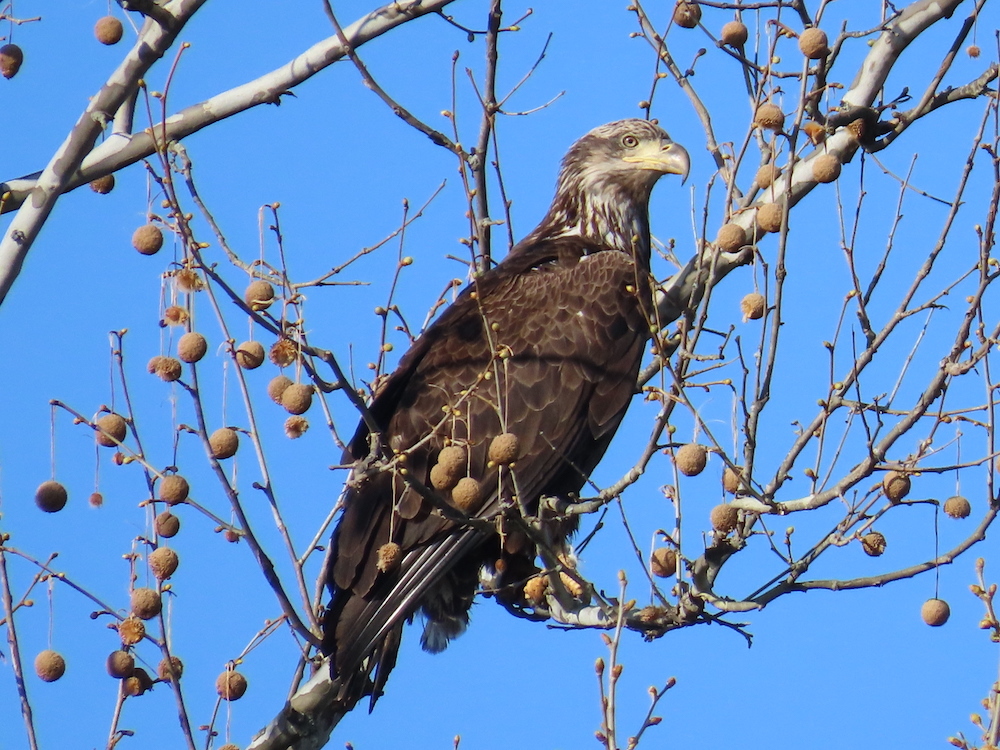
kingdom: Animalia
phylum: Chordata
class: Aves
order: Accipitriformes
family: Accipitridae
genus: Haliaeetus
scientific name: Haliaeetus leucocephalus
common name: Bald eagle
